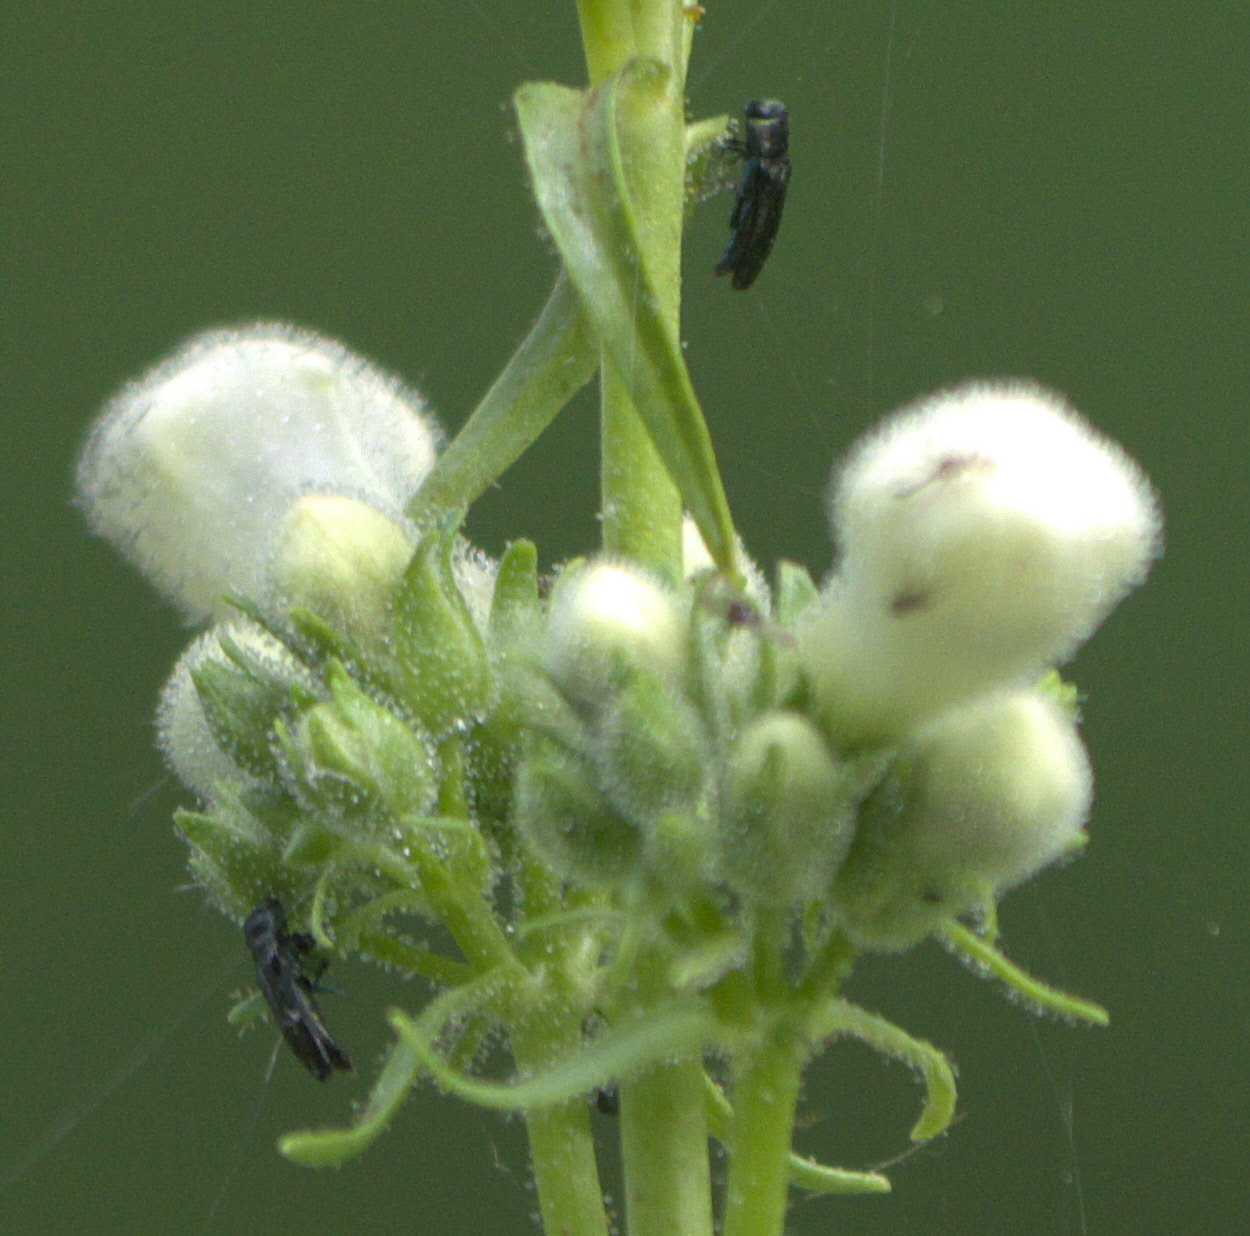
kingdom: Animalia
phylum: Arthropoda
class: Insecta
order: Coleoptera
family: Buprestidae
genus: Agrilaxia
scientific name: Agrilaxia flavimana
